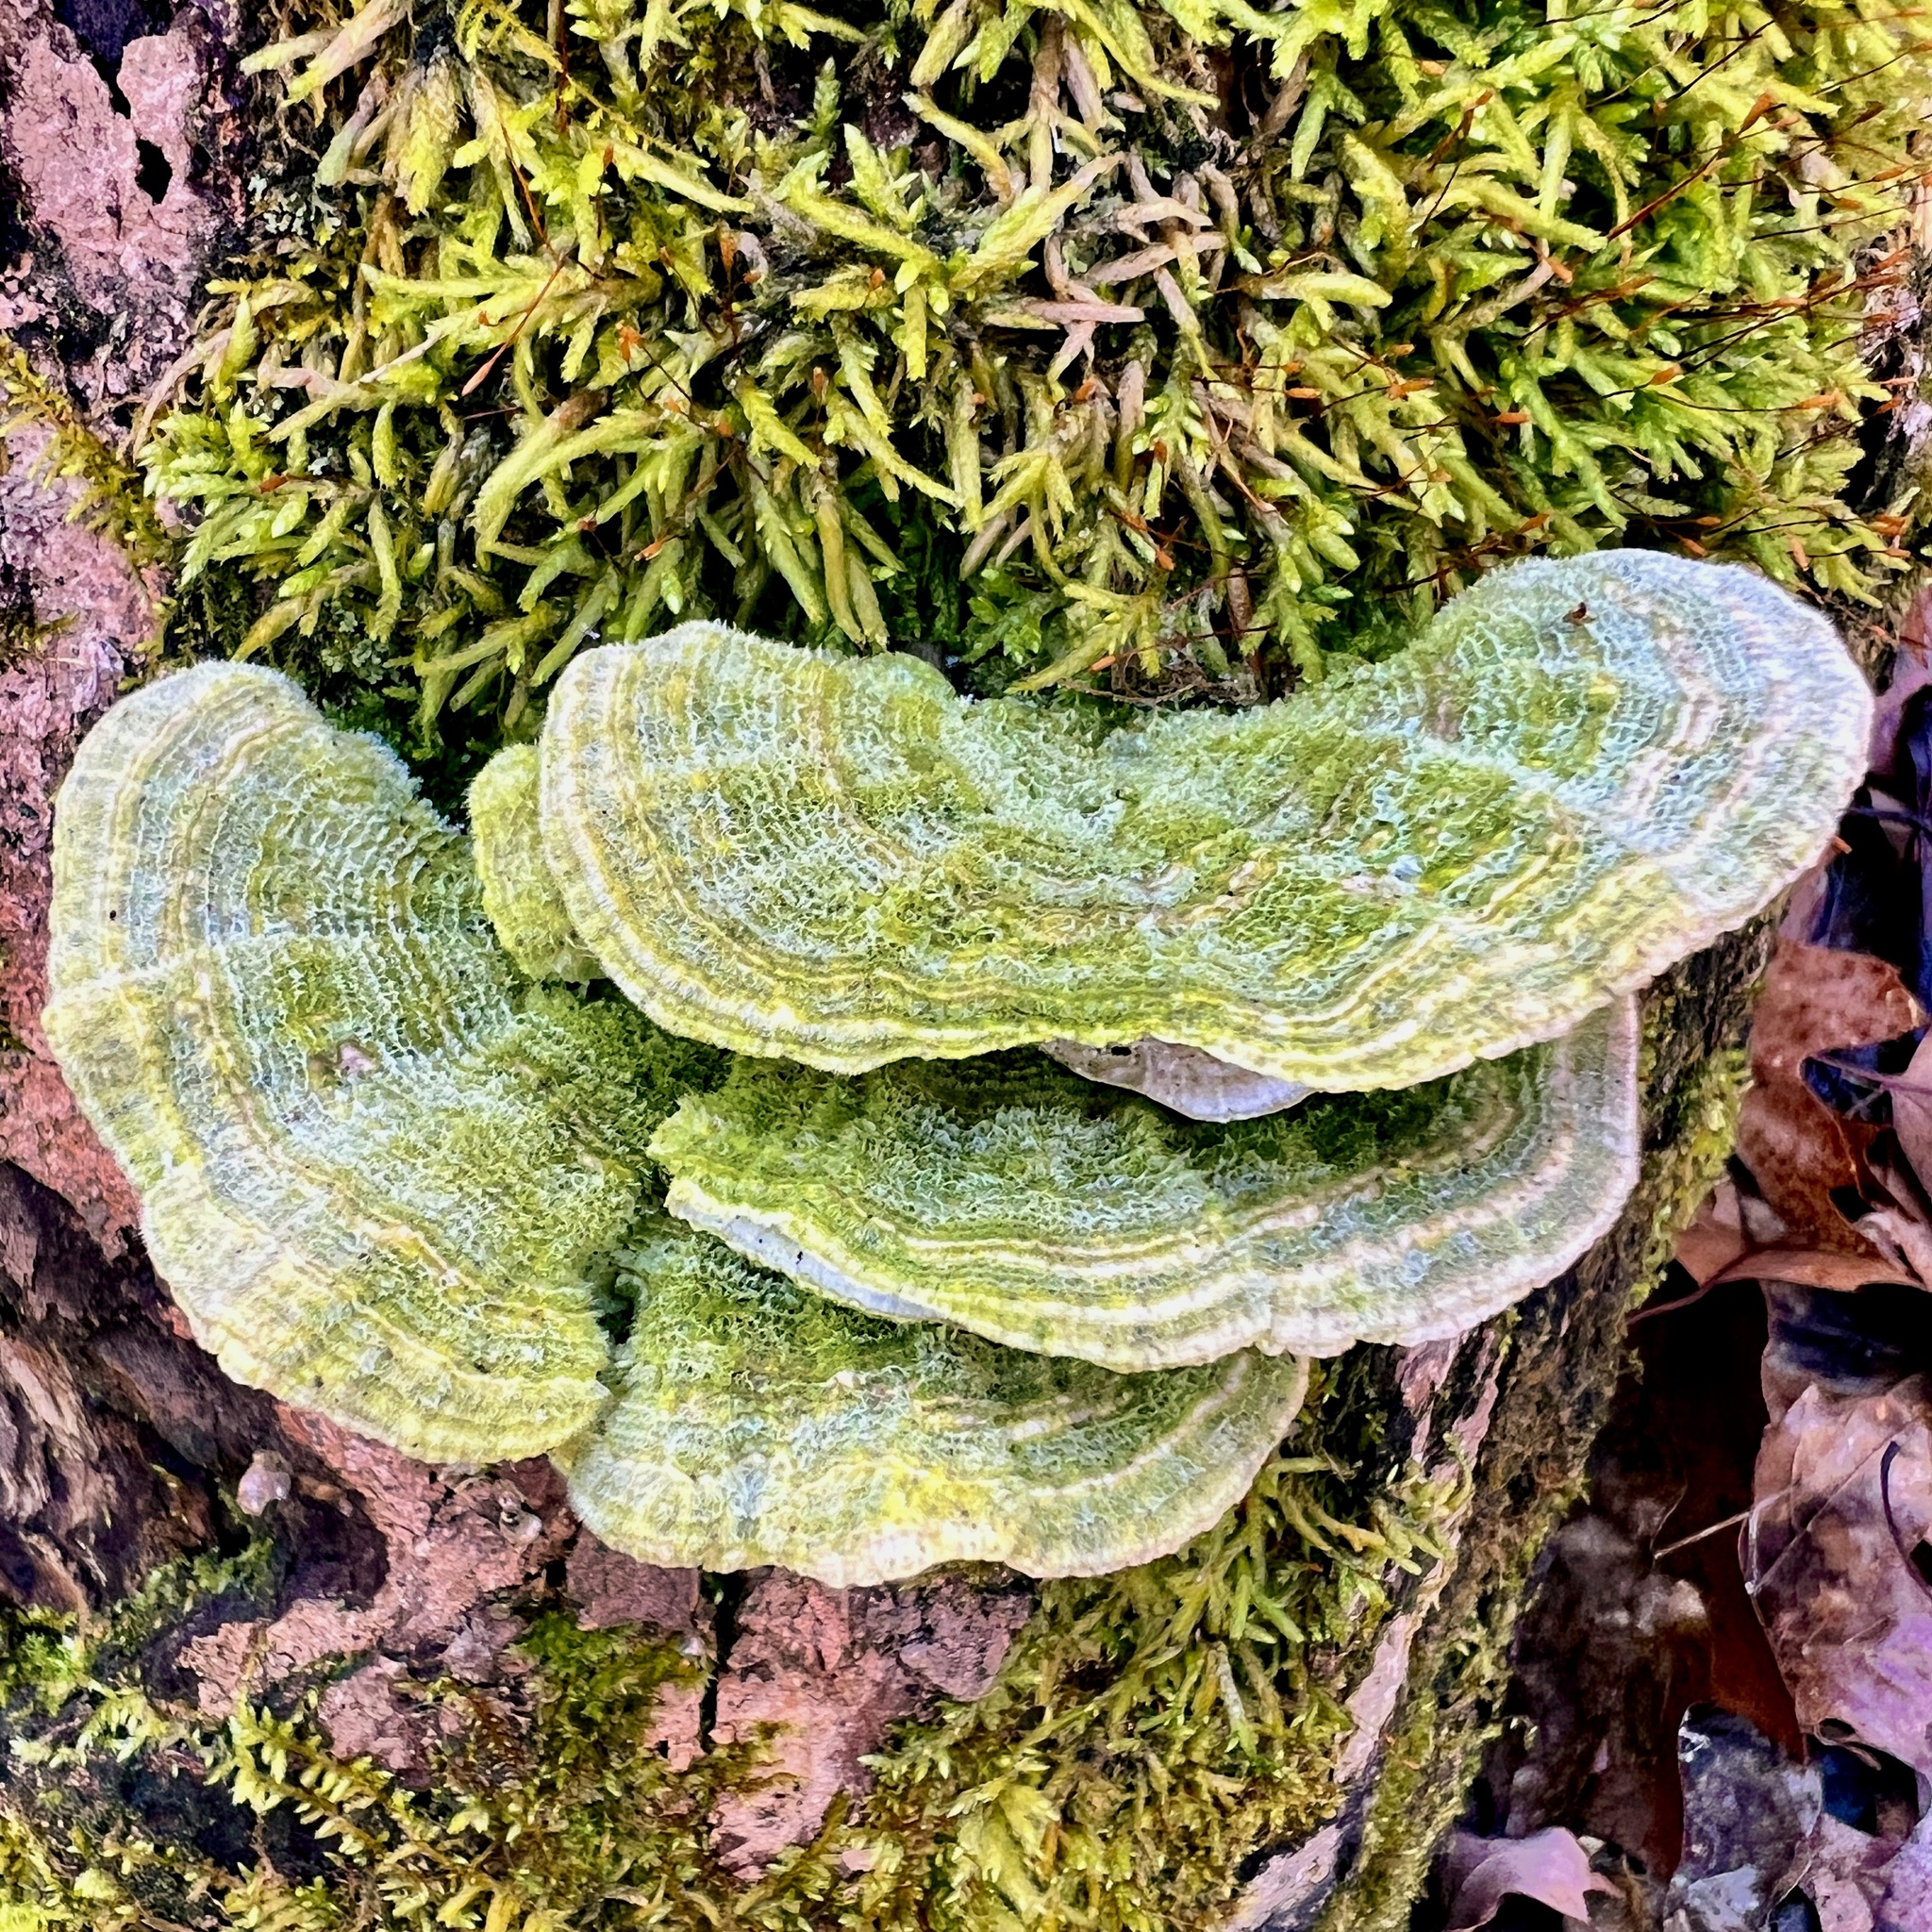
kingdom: Fungi
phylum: Basidiomycota
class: Agaricomycetes
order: Polyporales
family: Polyporaceae
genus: Lenzites
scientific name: Lenzites betulinus
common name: Birch mazegill
